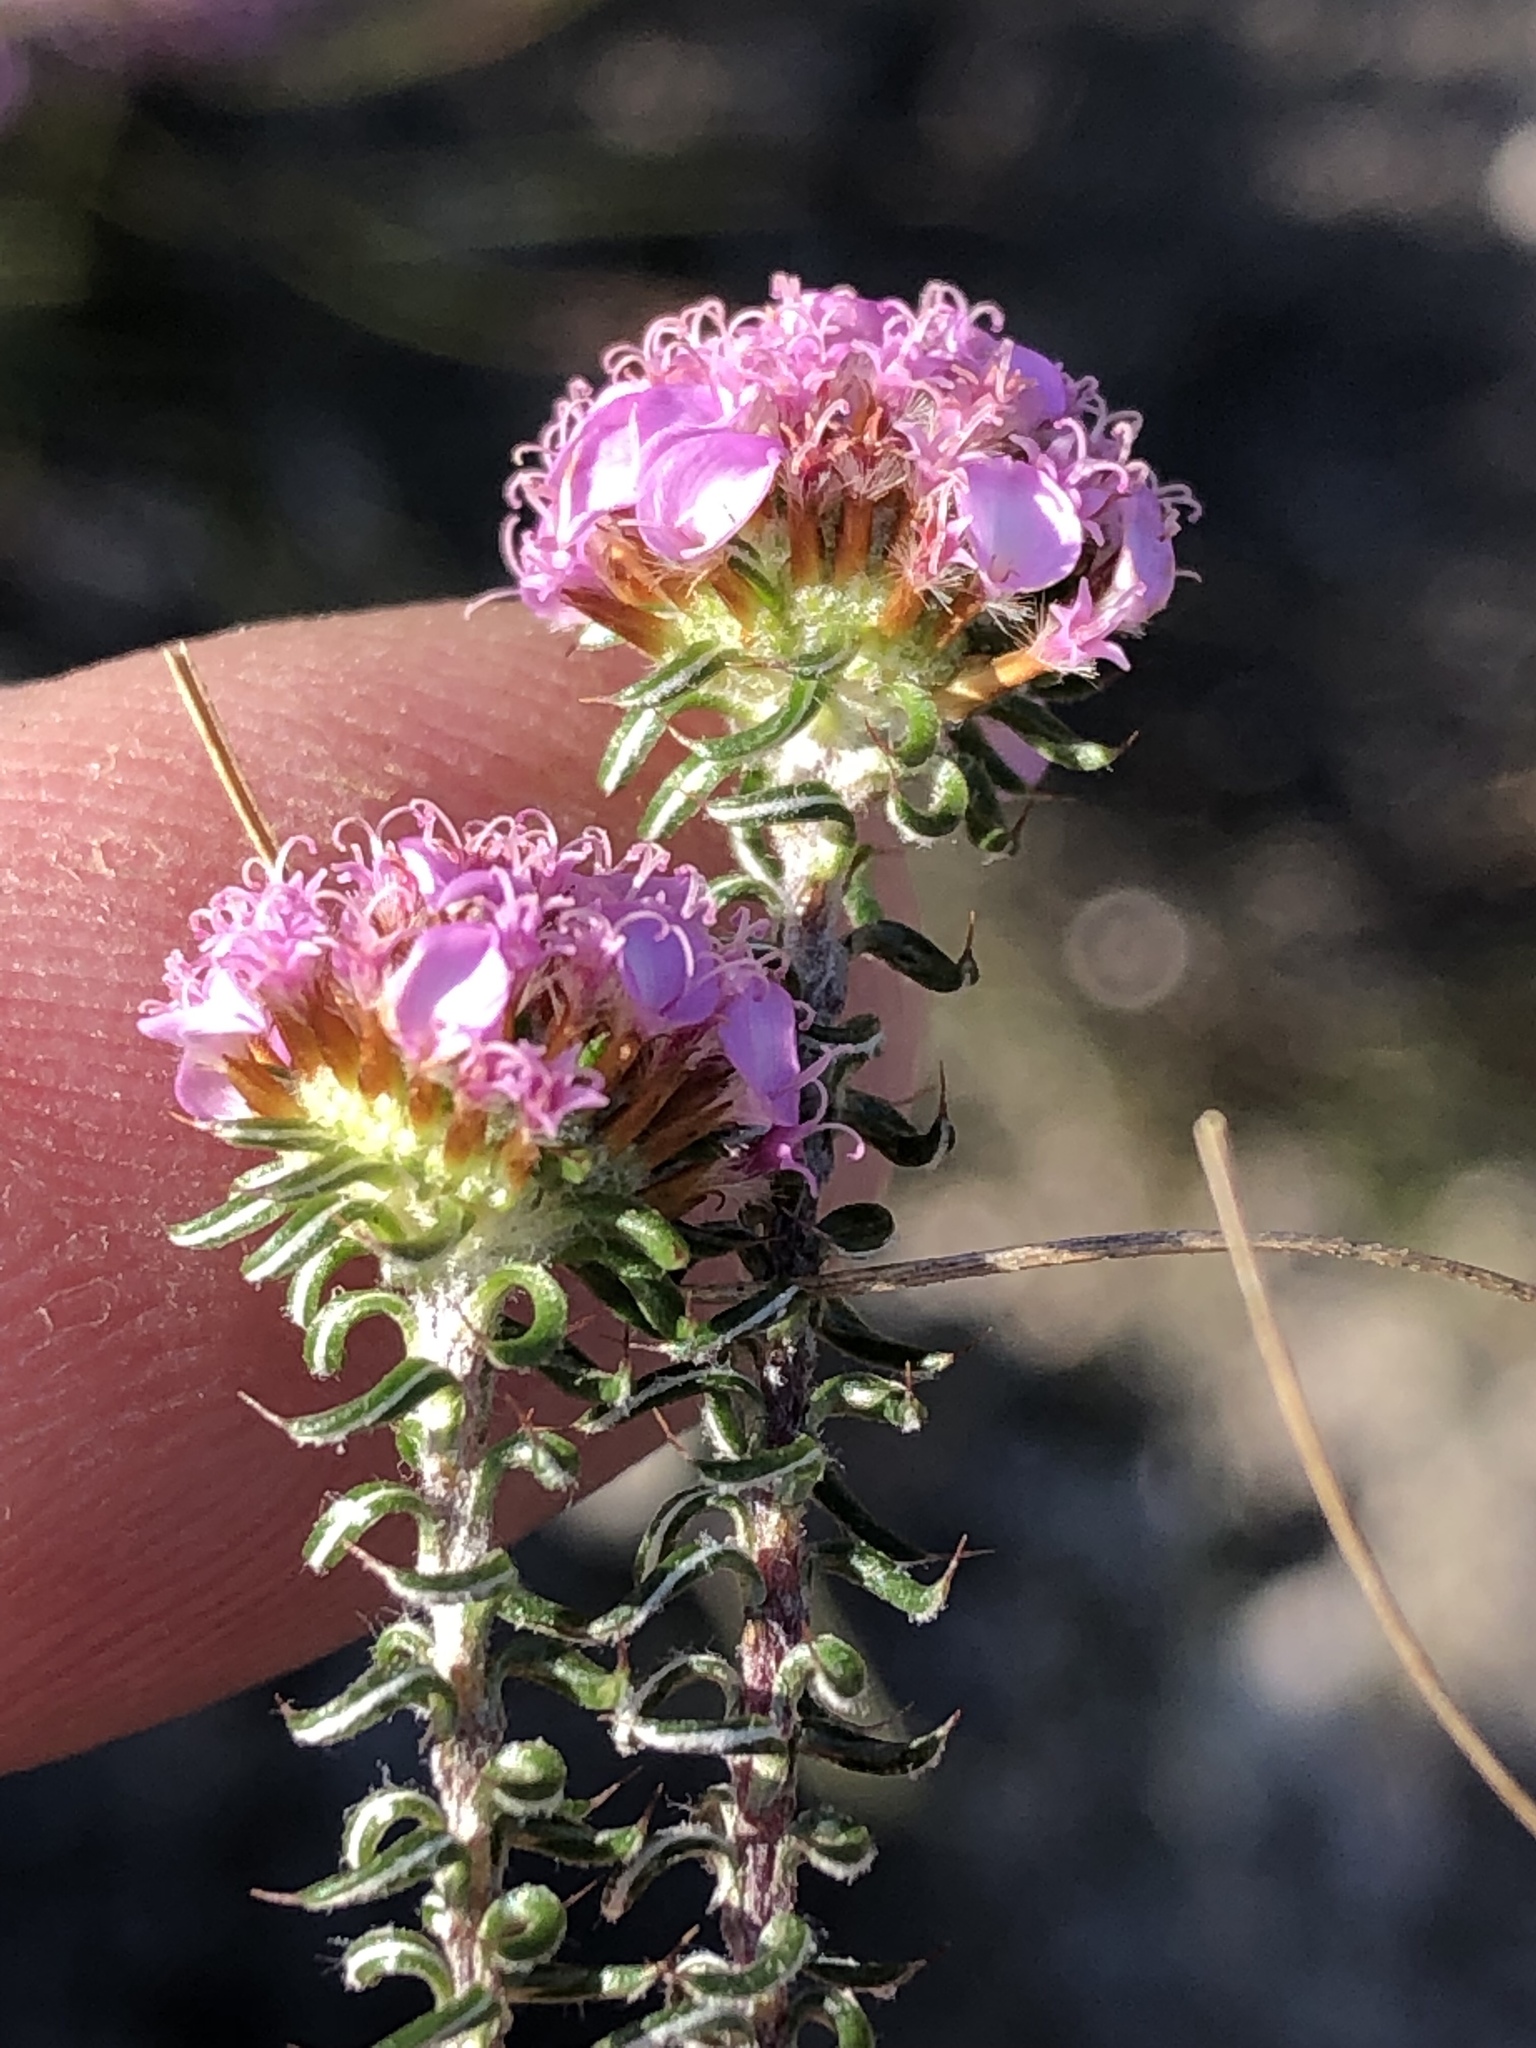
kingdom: Plantae
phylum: Tracheophyta
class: Magnoliopsida
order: Asterales
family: Asteraceae
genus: Disparago
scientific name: Disparago tortilis
